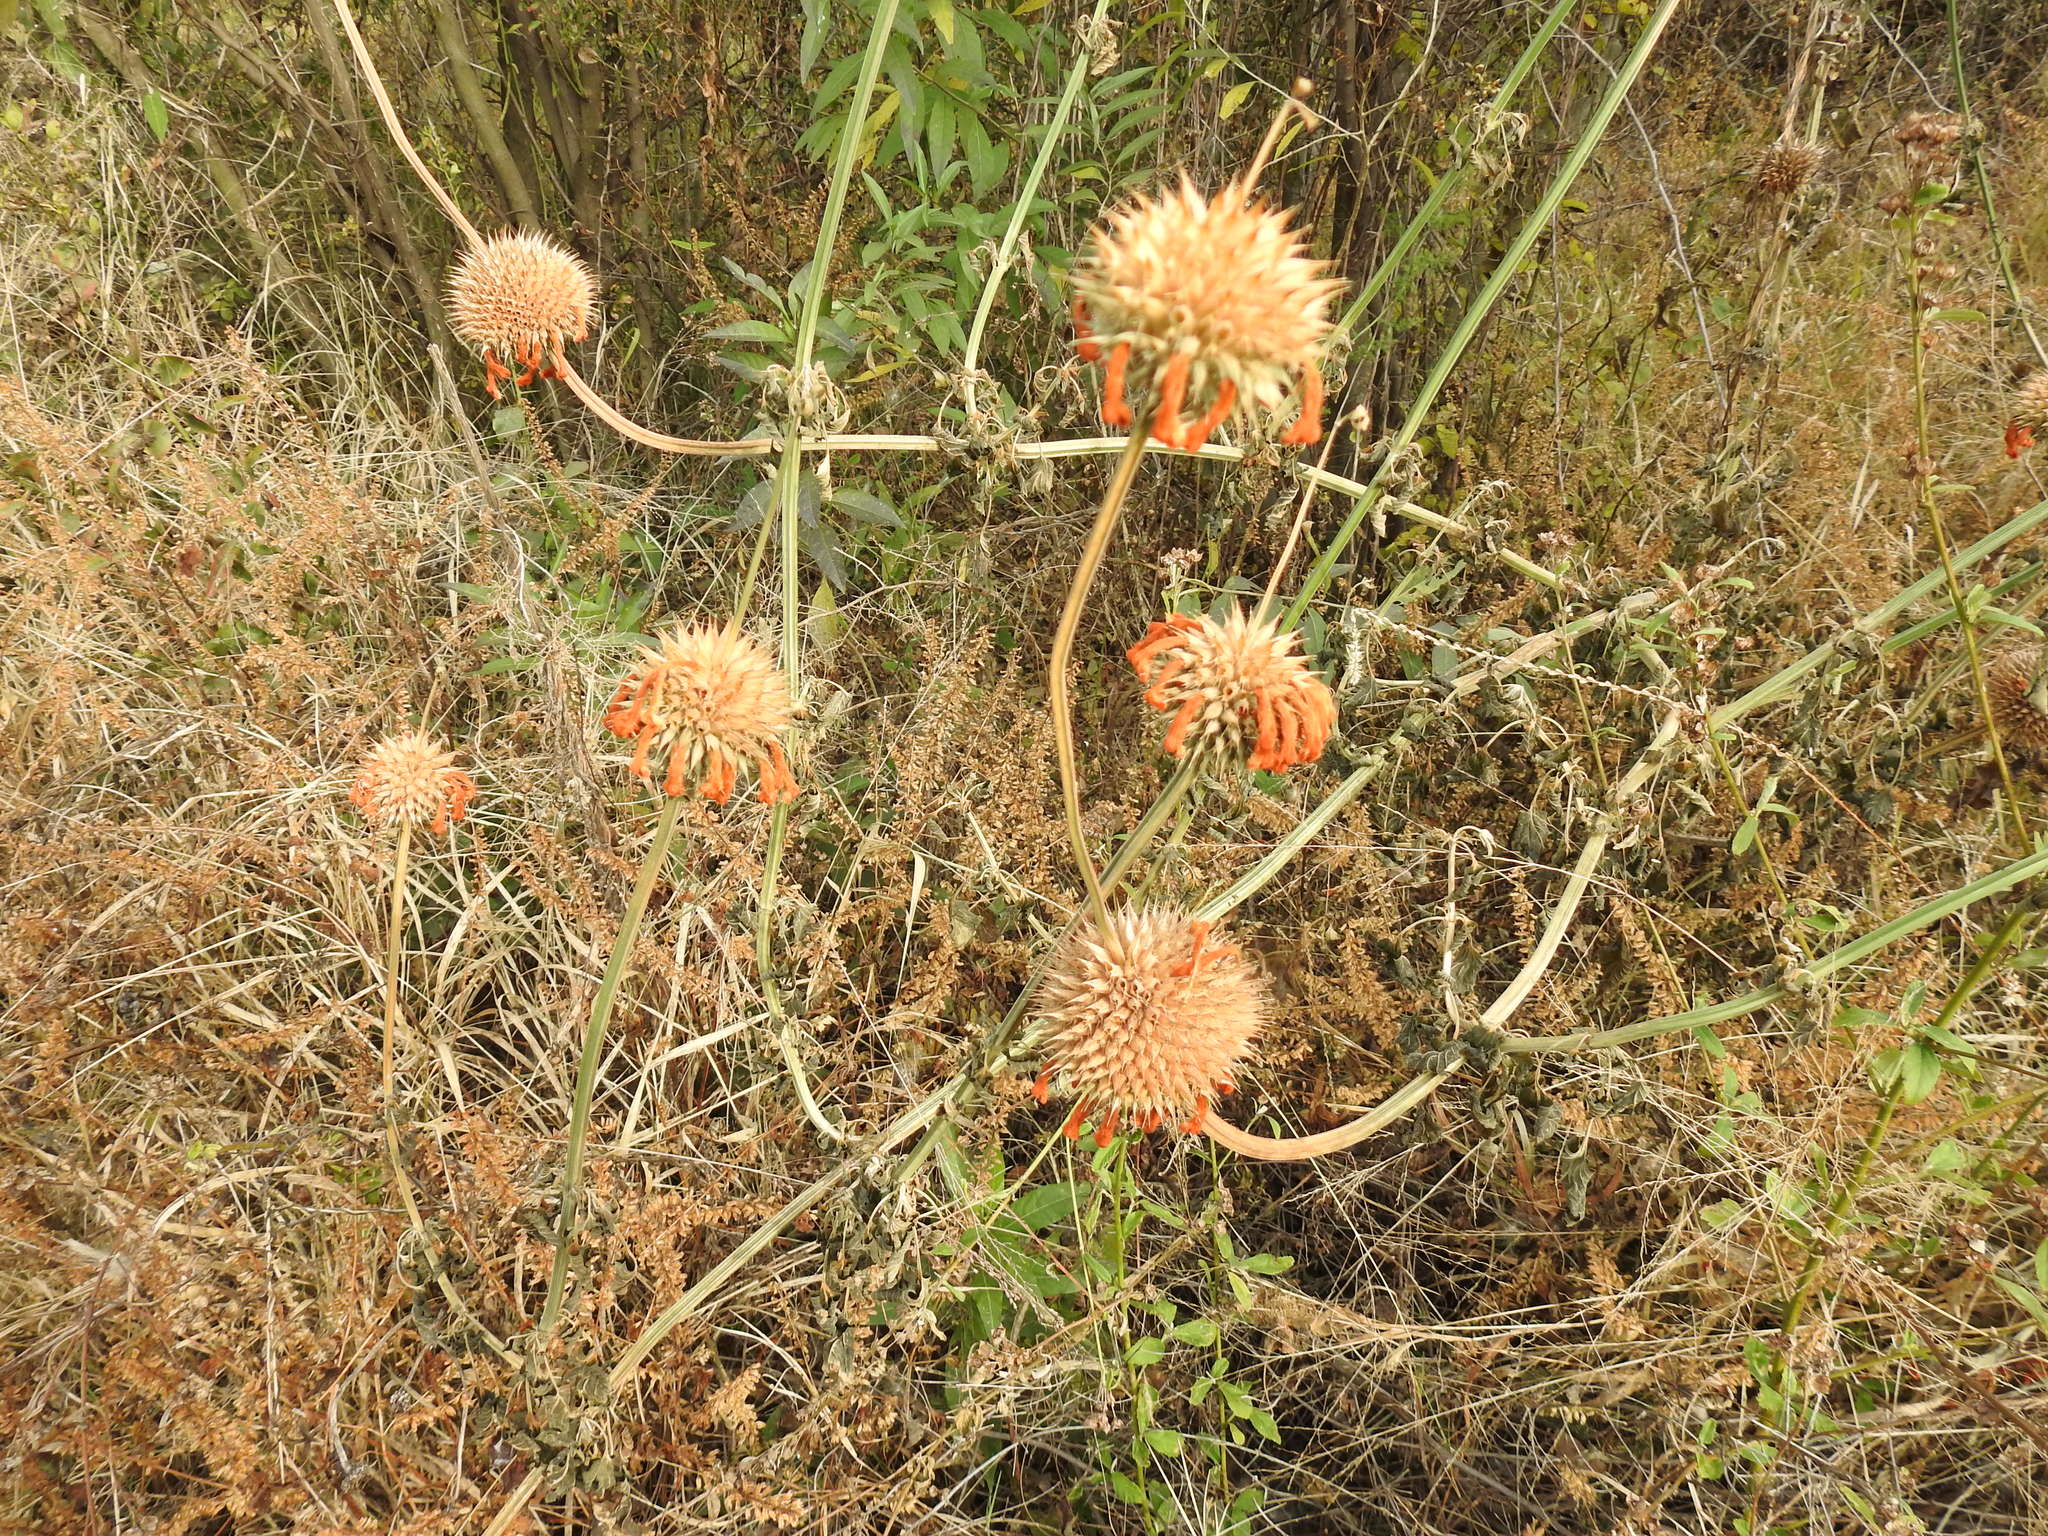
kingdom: Plantae
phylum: Tracheophyta
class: Magnoliopsida
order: Lamiales
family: Lamiaceae
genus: Leonotis
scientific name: Leonotis nepetifolia
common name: Christmas candlestick
